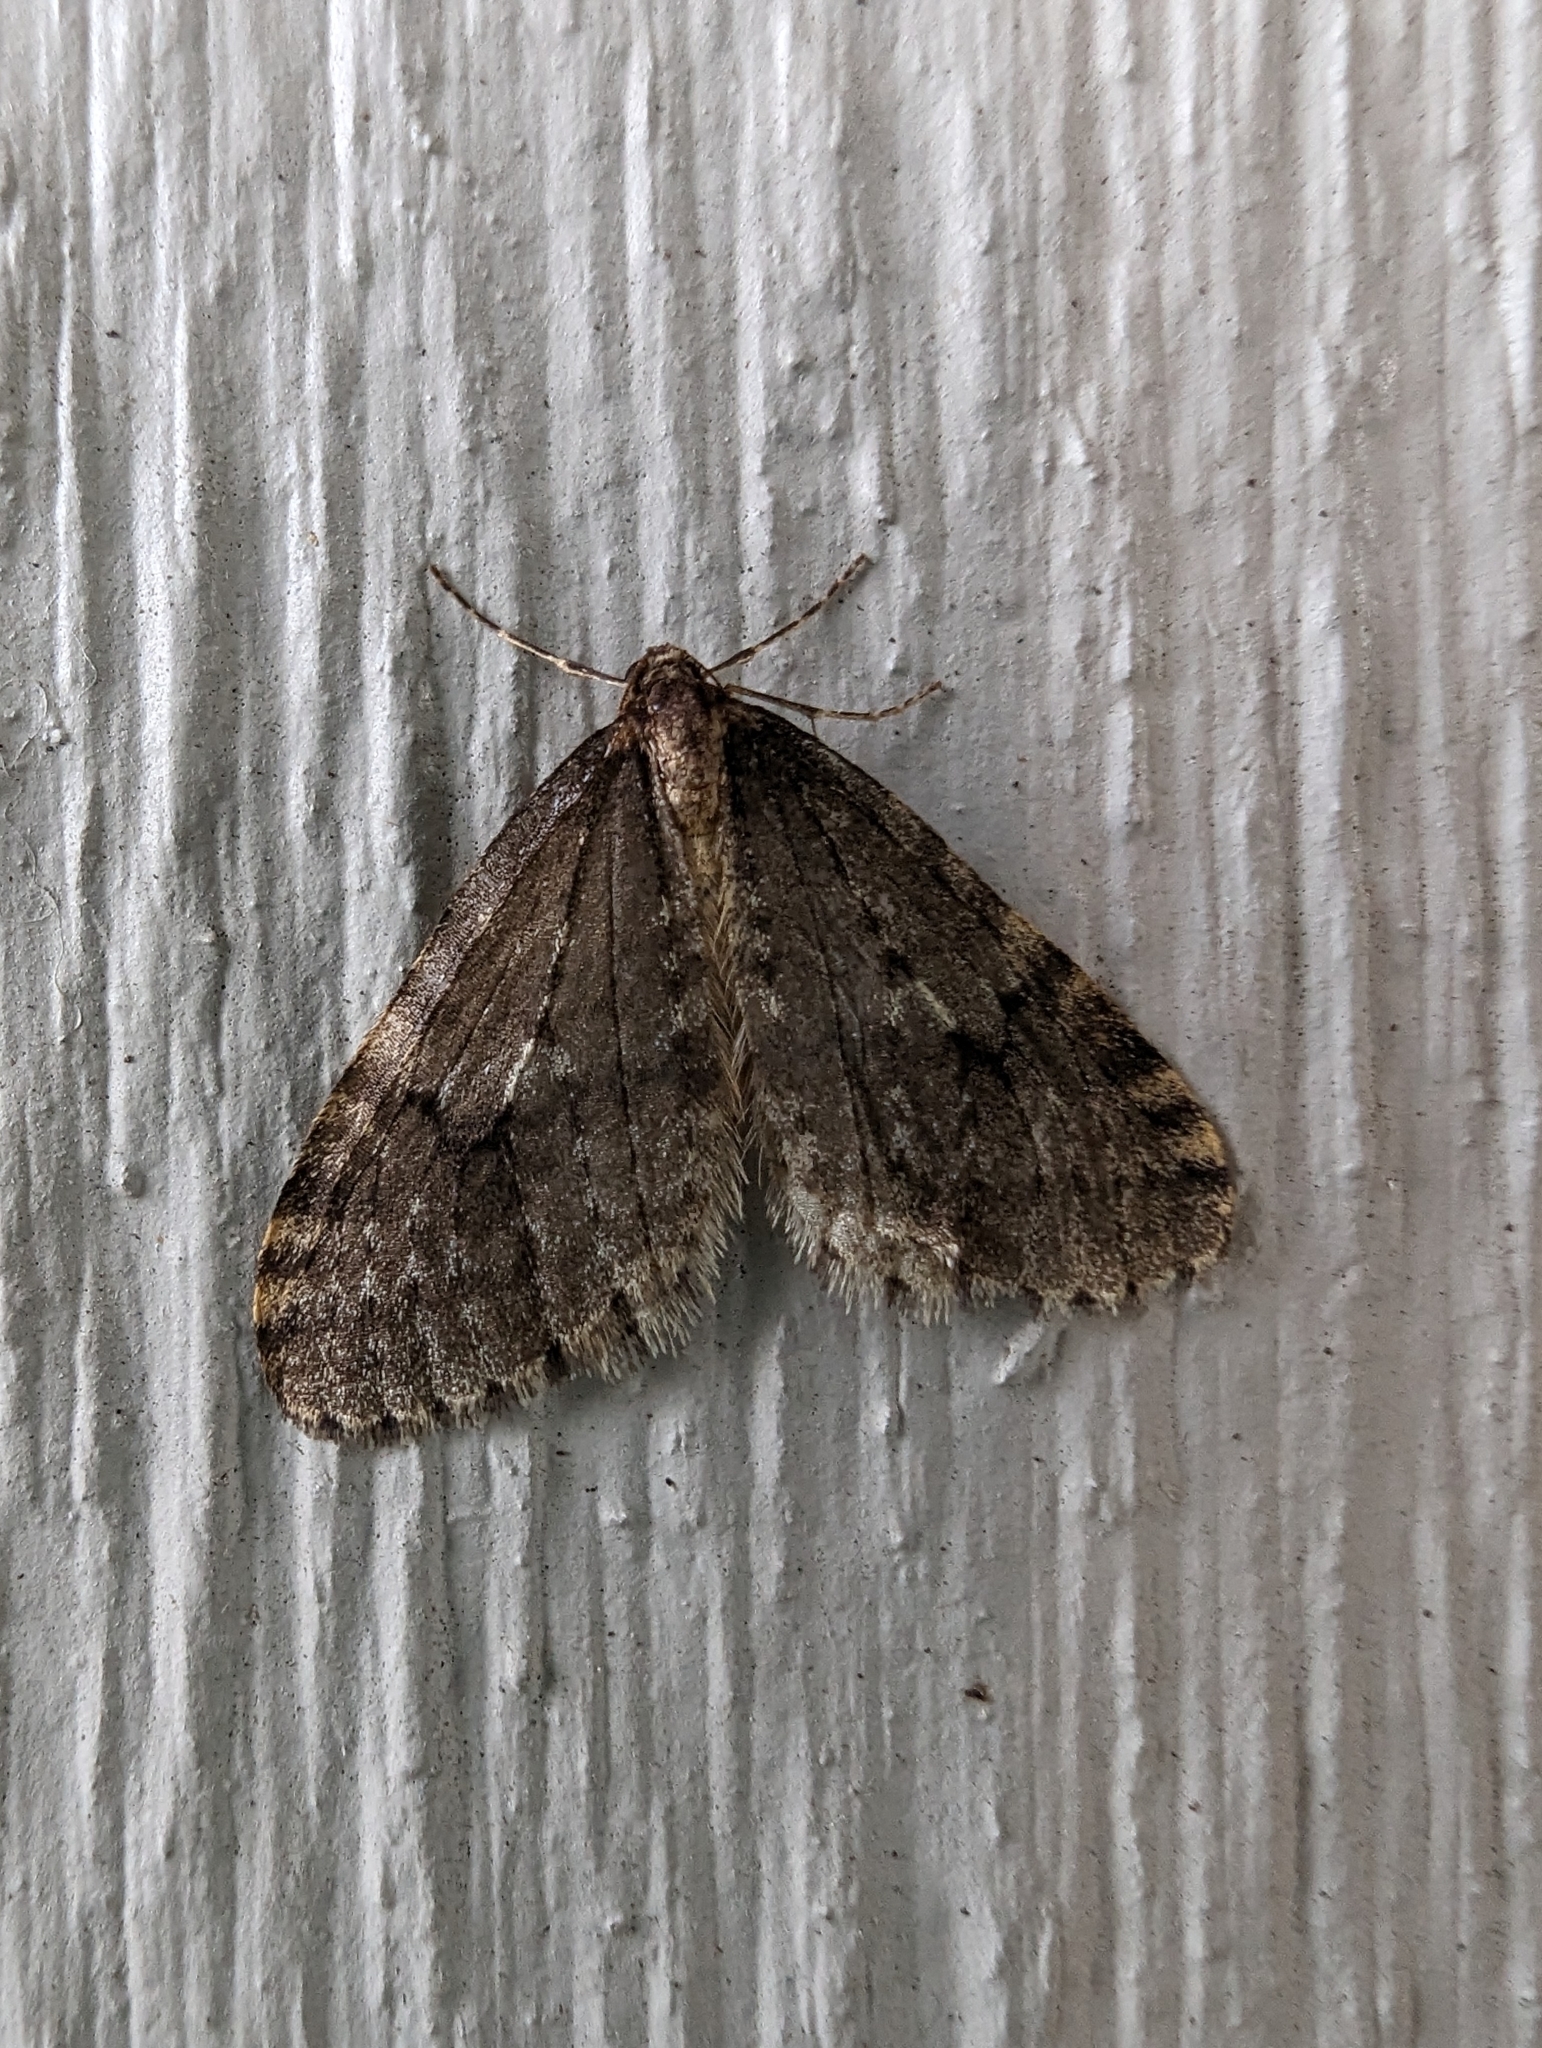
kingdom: Animalia
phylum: Arthropoda
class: Insecta
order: Lepidoptera
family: Geometridae
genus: Operophtera
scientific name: Operophtera
